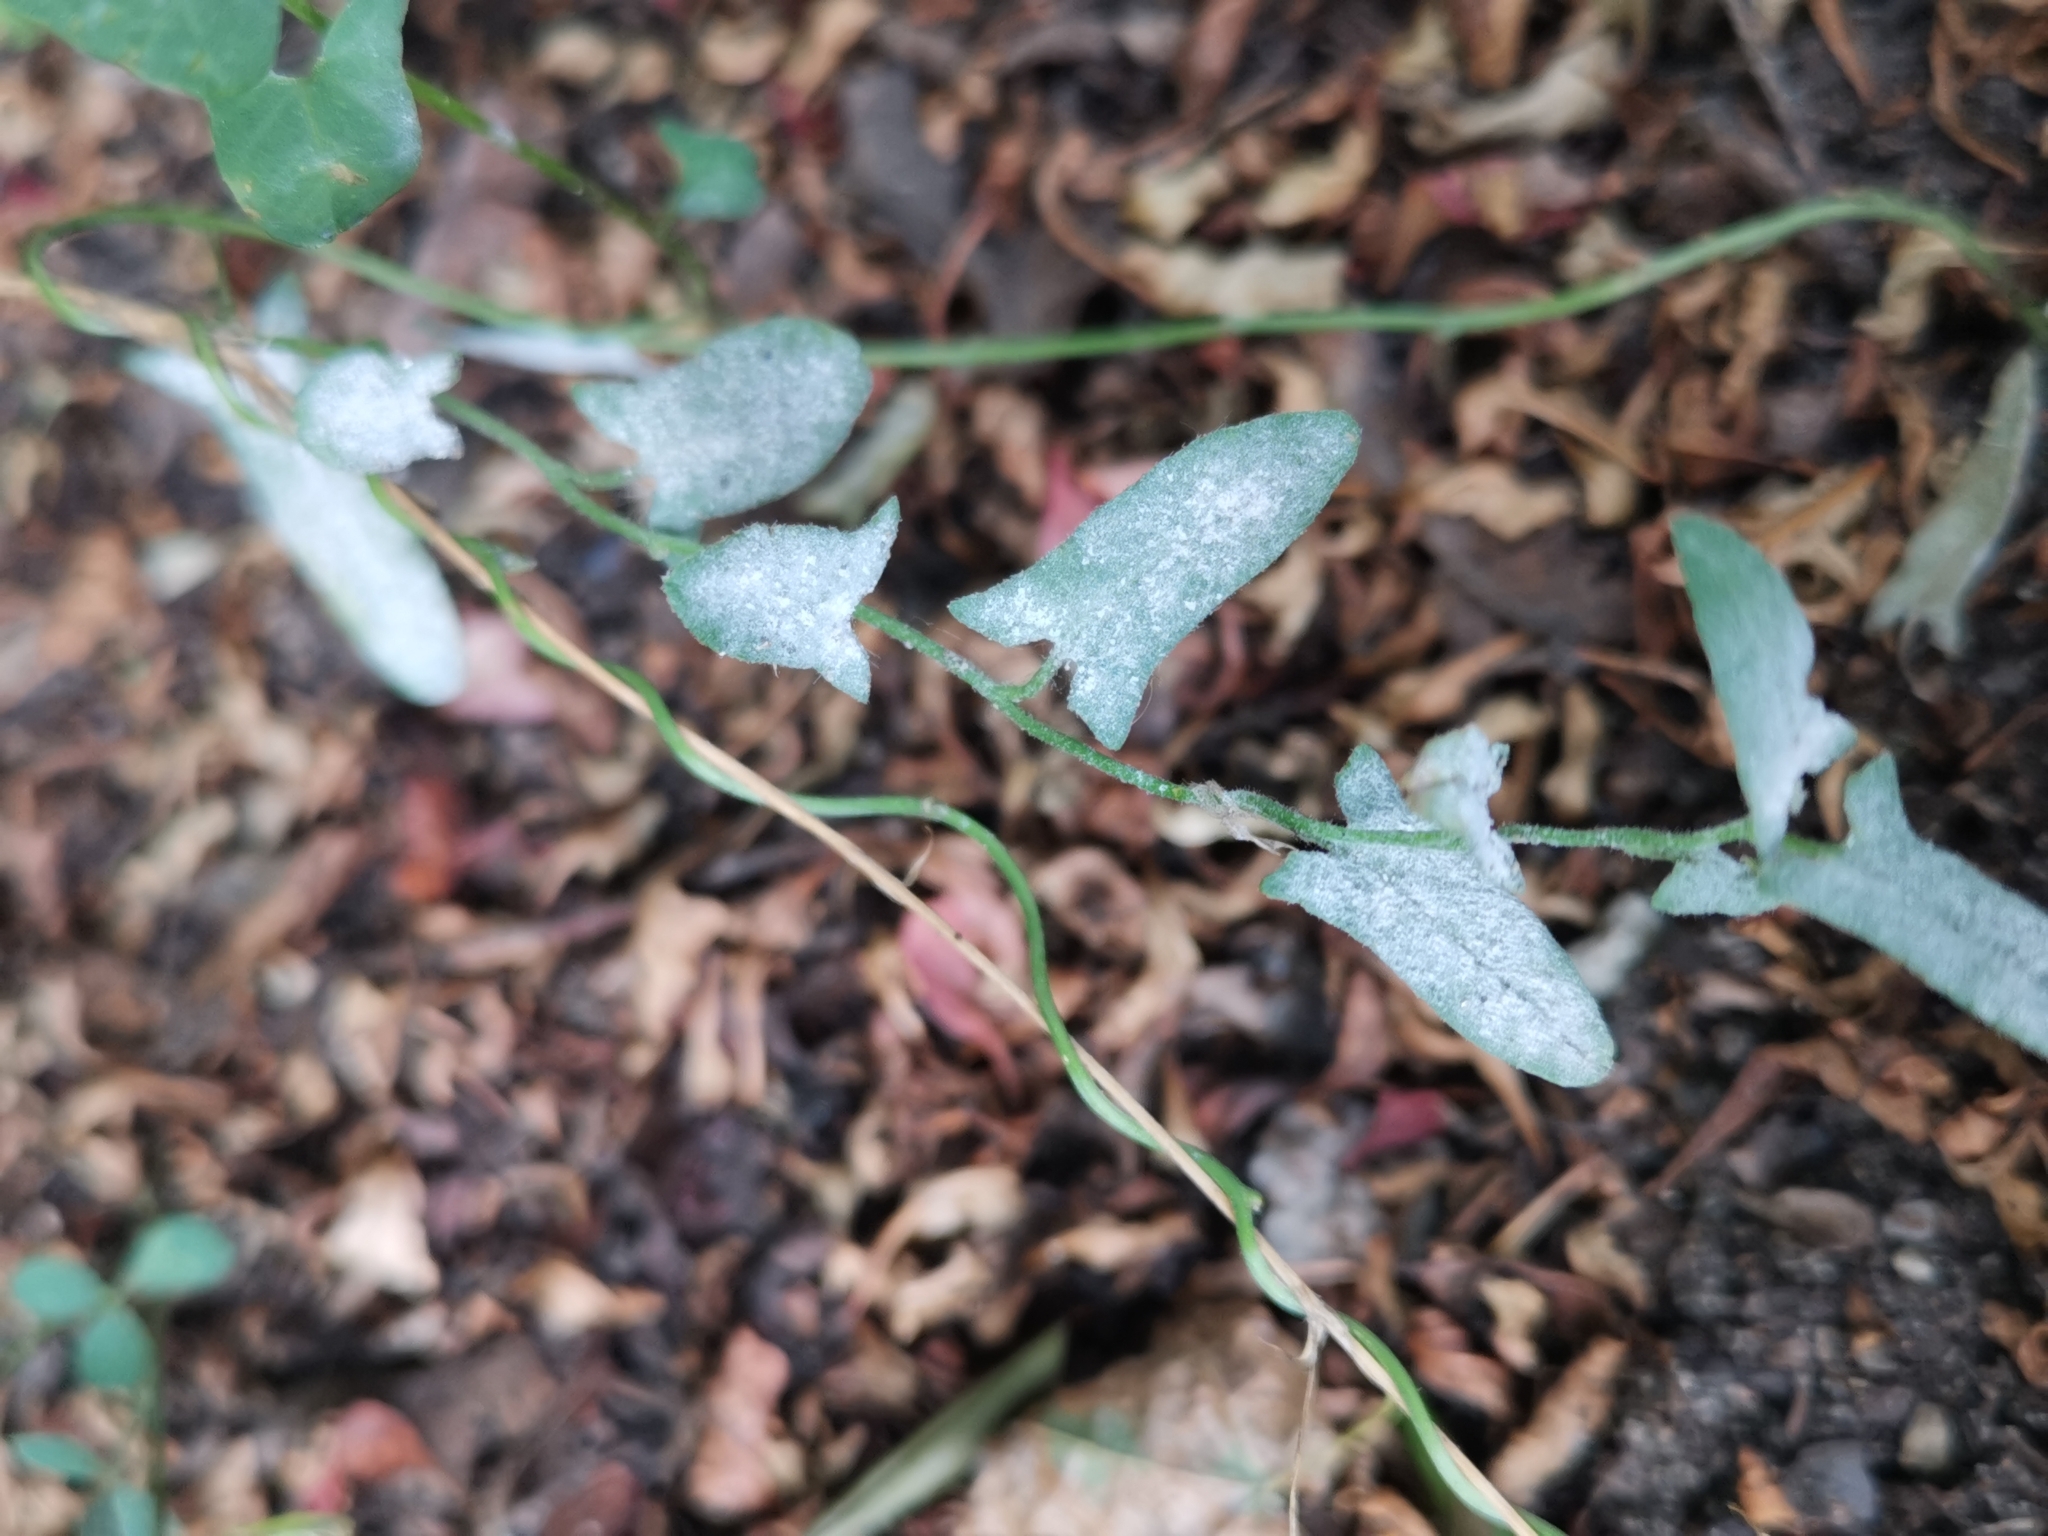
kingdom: Fungi
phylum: Ascomycota
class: Leotiomycetes
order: Helotiales
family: Erysiphaceae
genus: Erysiphe
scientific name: Erysiphe convolvuli
